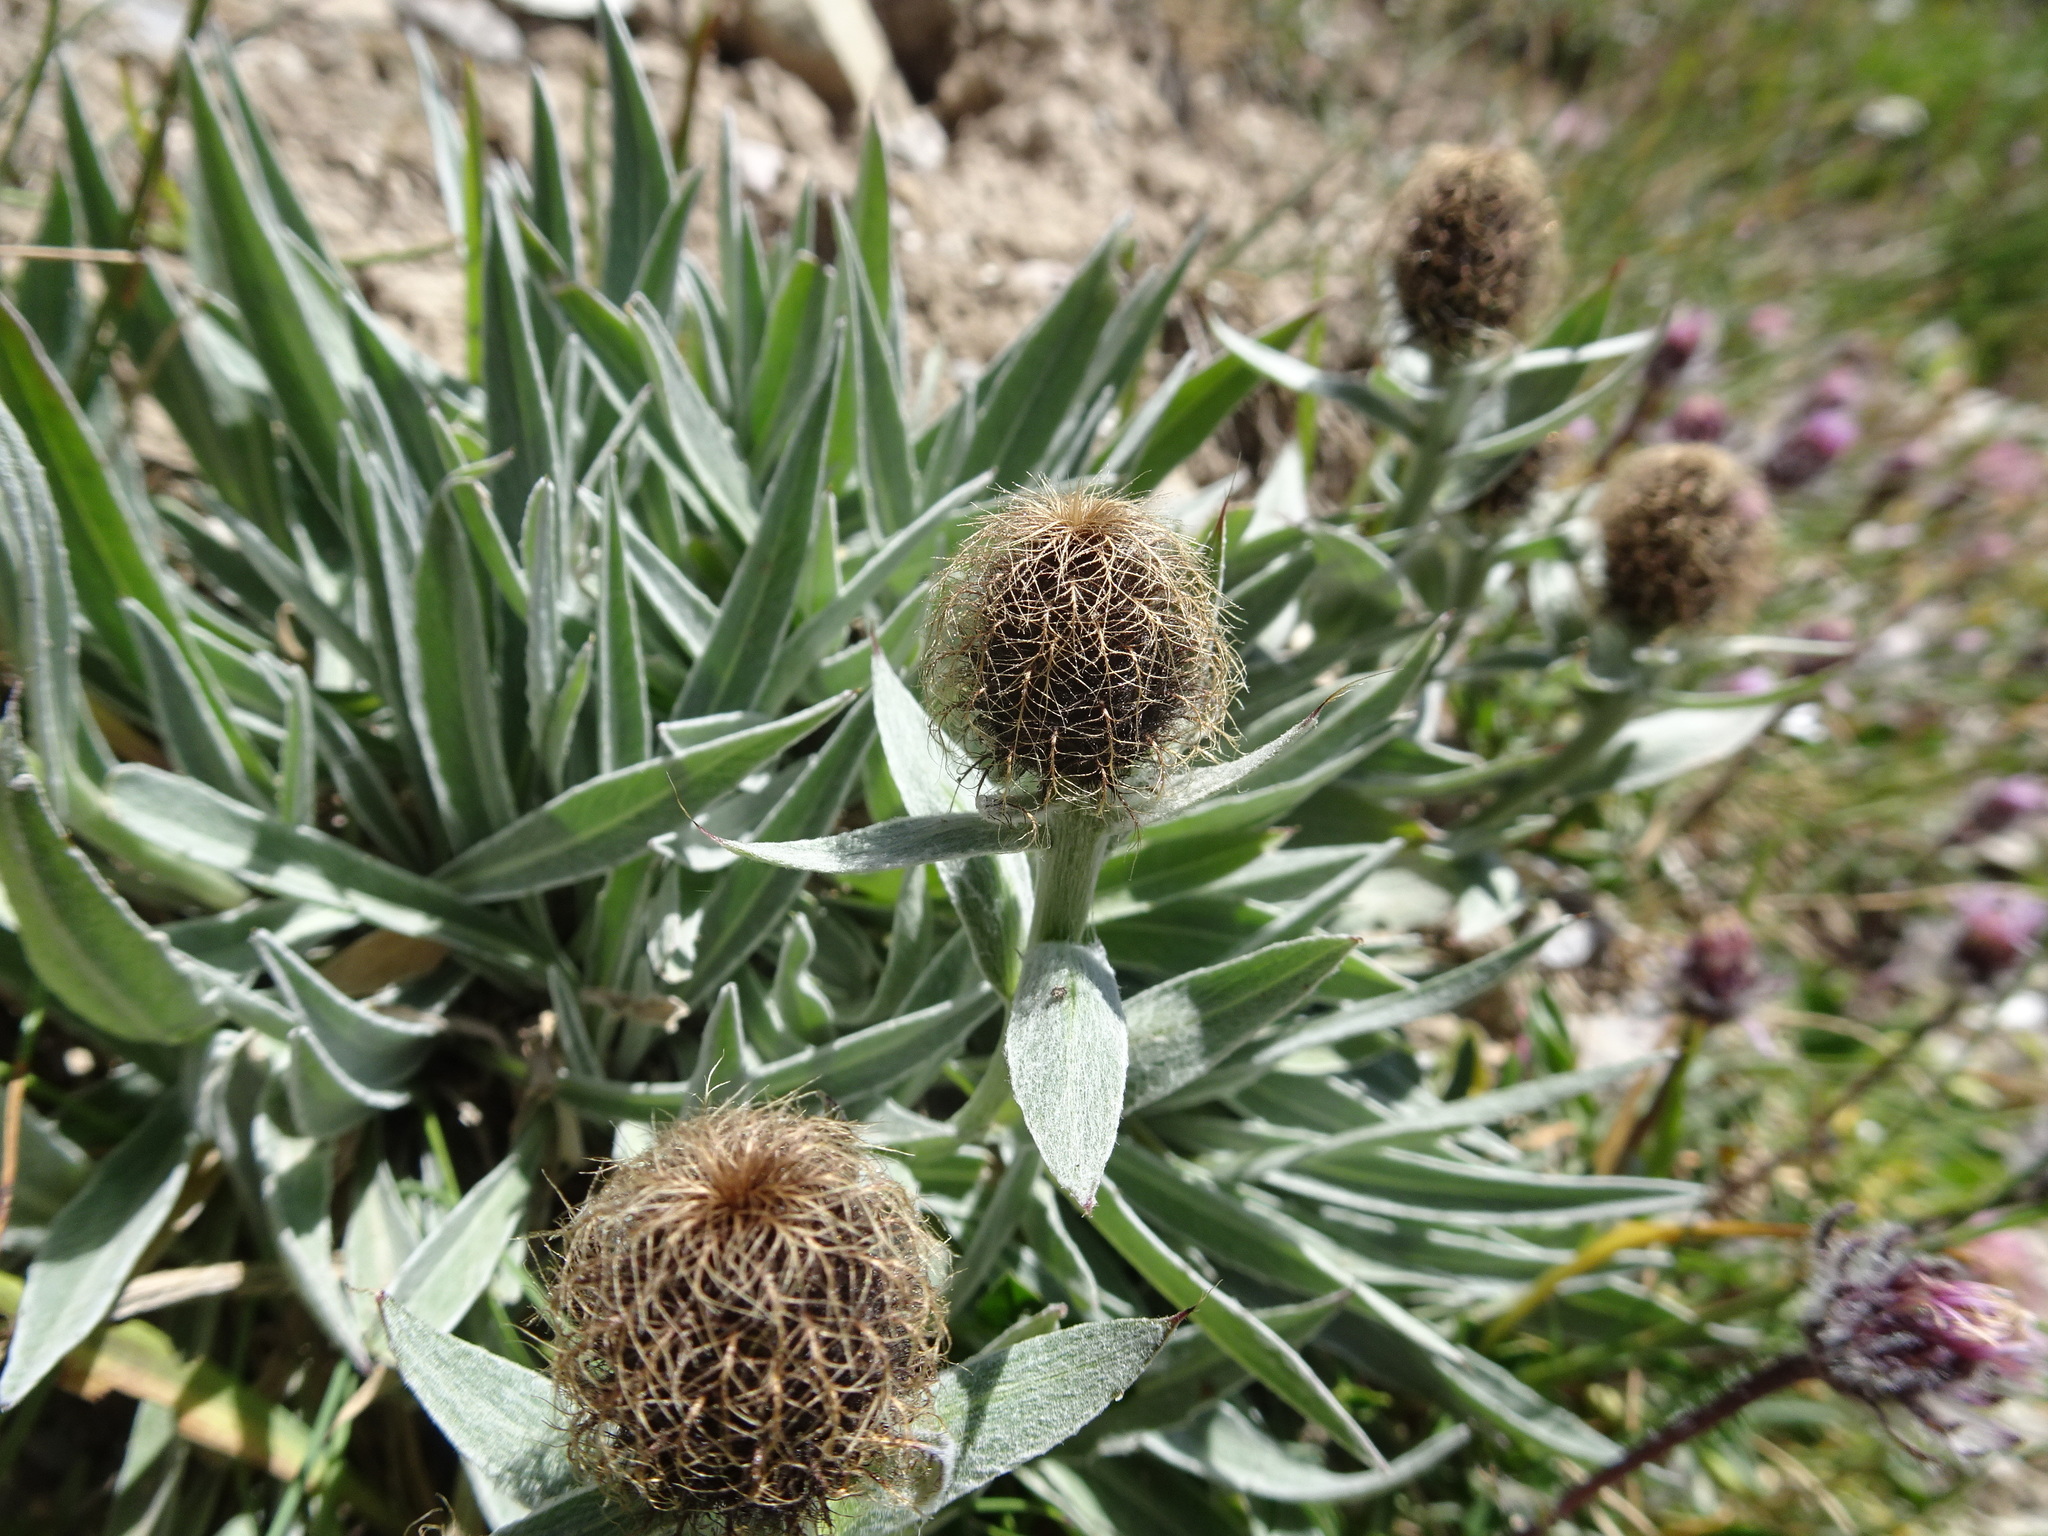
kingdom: Plantae
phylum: Tracheophyta
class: Magnoliopsida
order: Asterales
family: Asteraceae
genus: Centaurea
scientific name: Centaurea nervosa
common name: Singleflower knapweed
